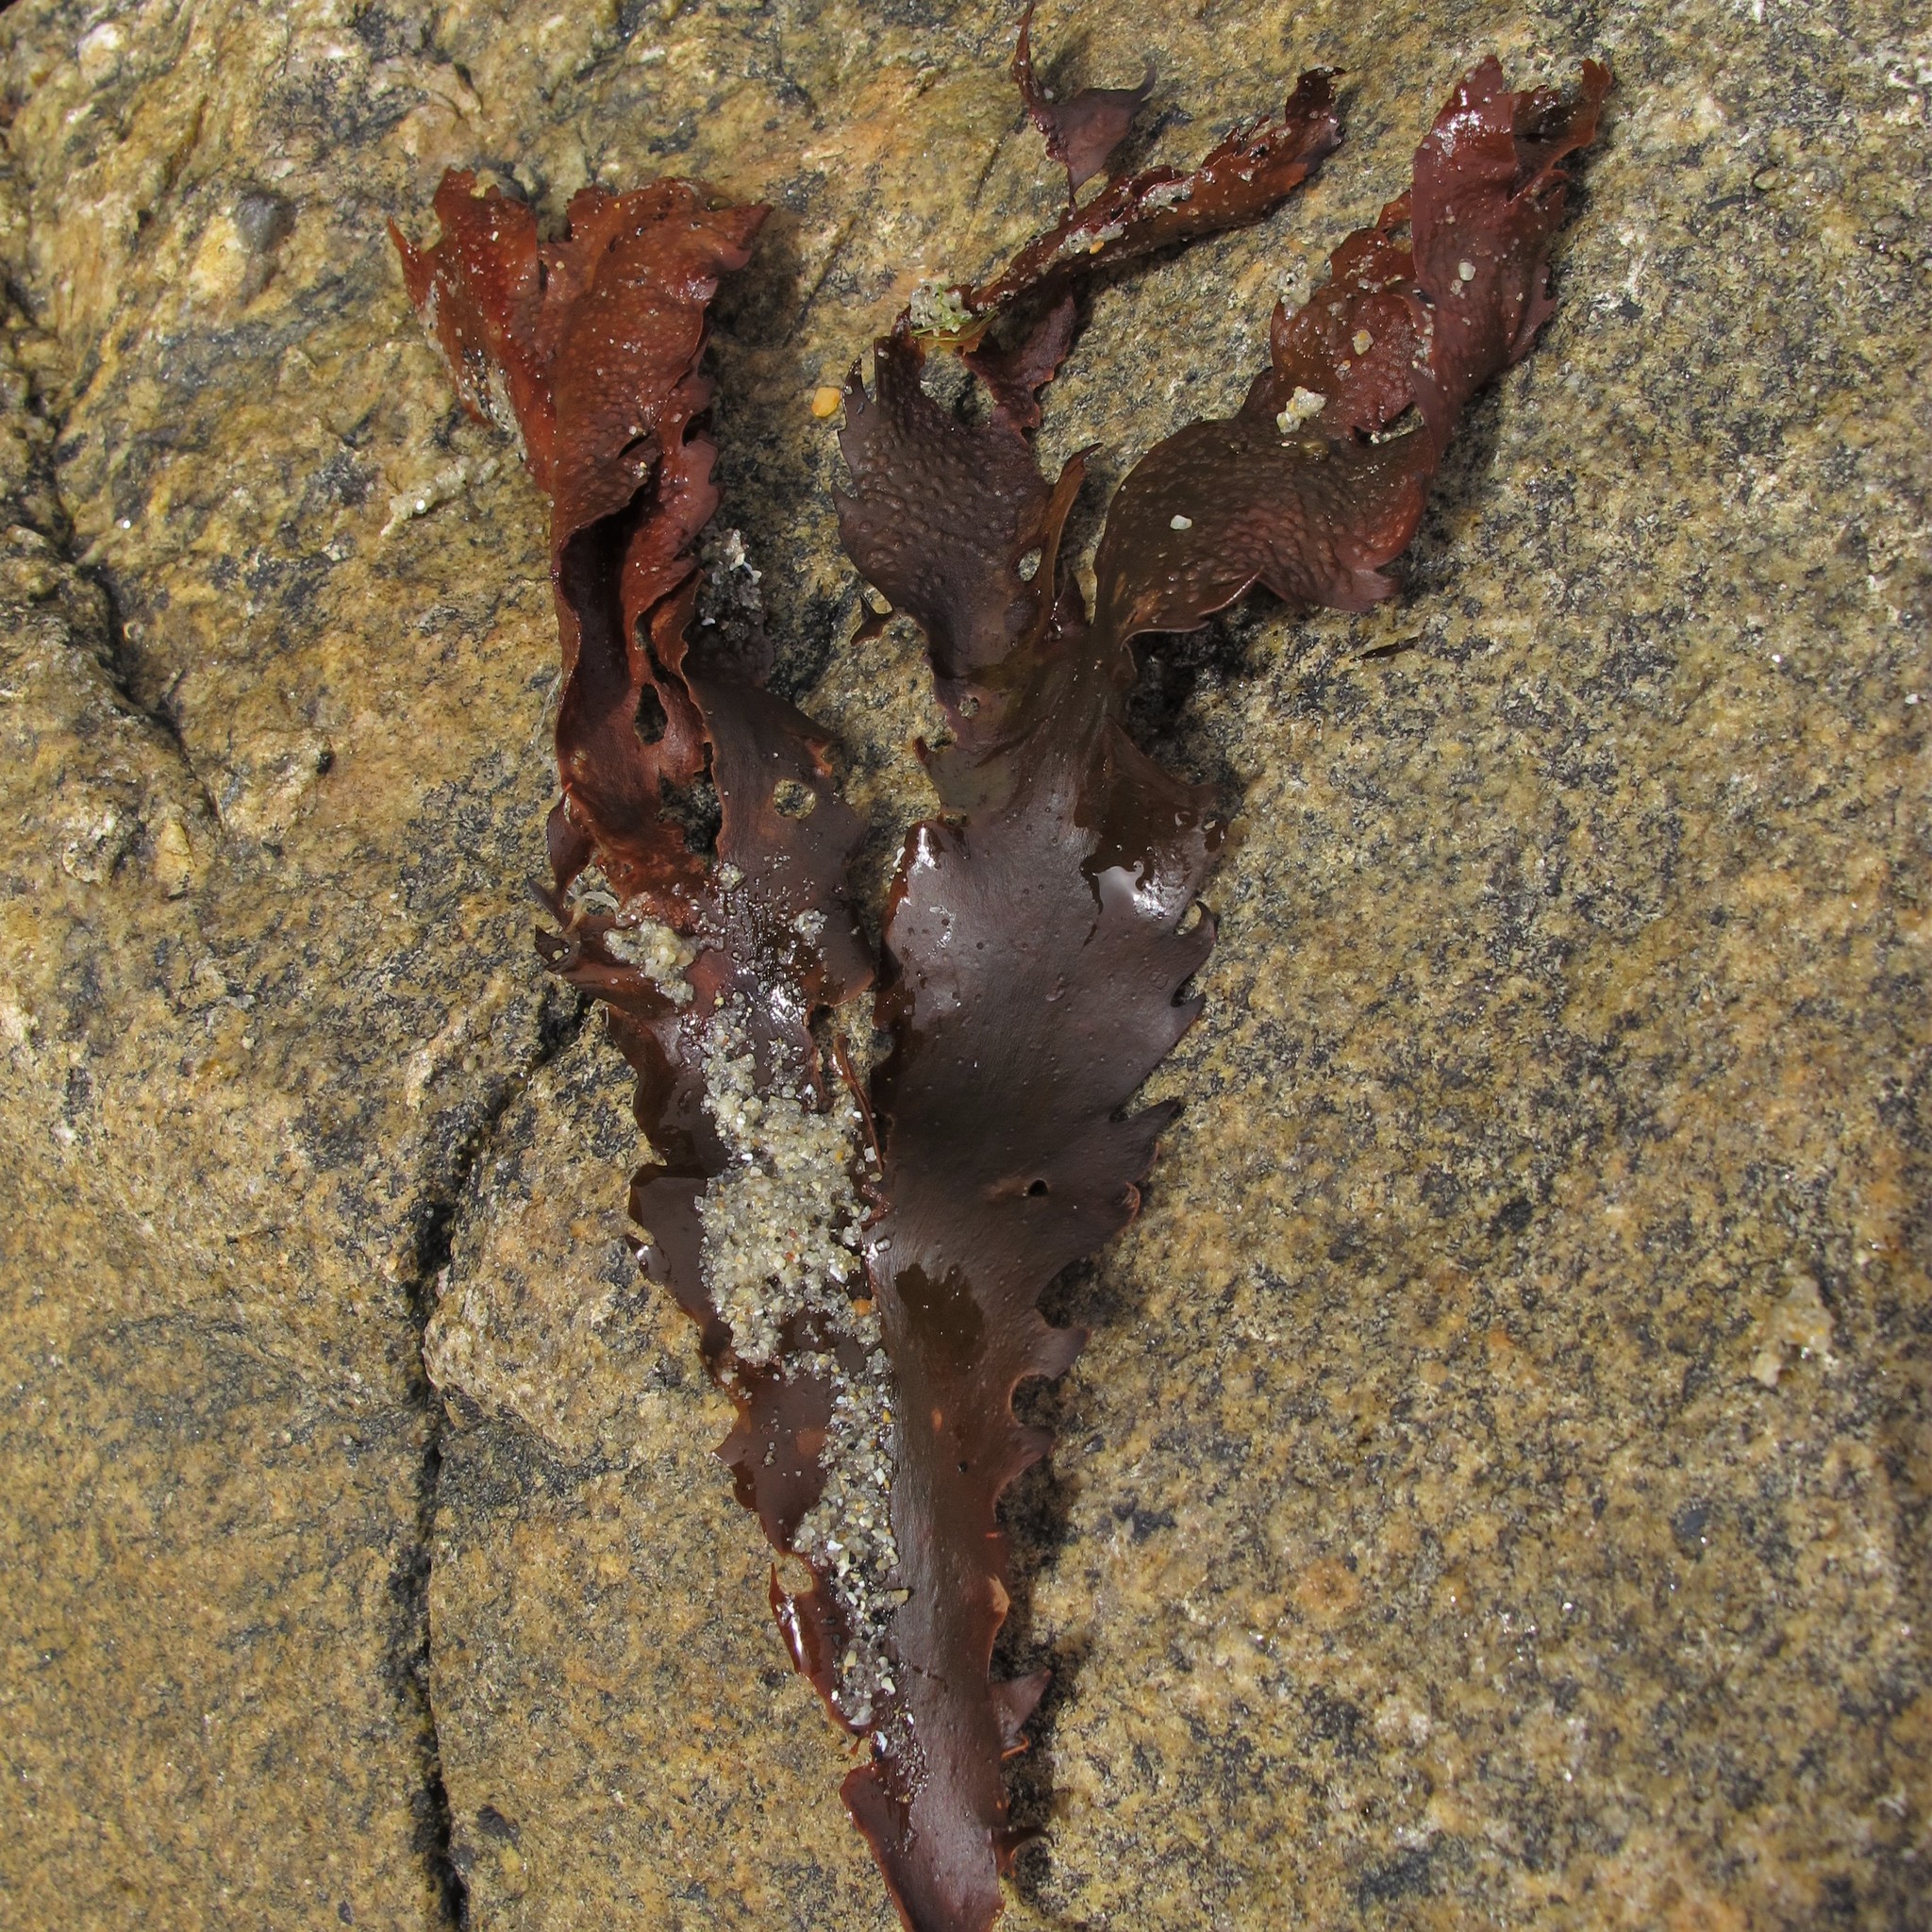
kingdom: Chromista
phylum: Ochrophyta
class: Phaeophyceae
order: Fucales
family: Fucaceae
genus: Fucus
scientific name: Fucus serratus
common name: Toothed wrack
